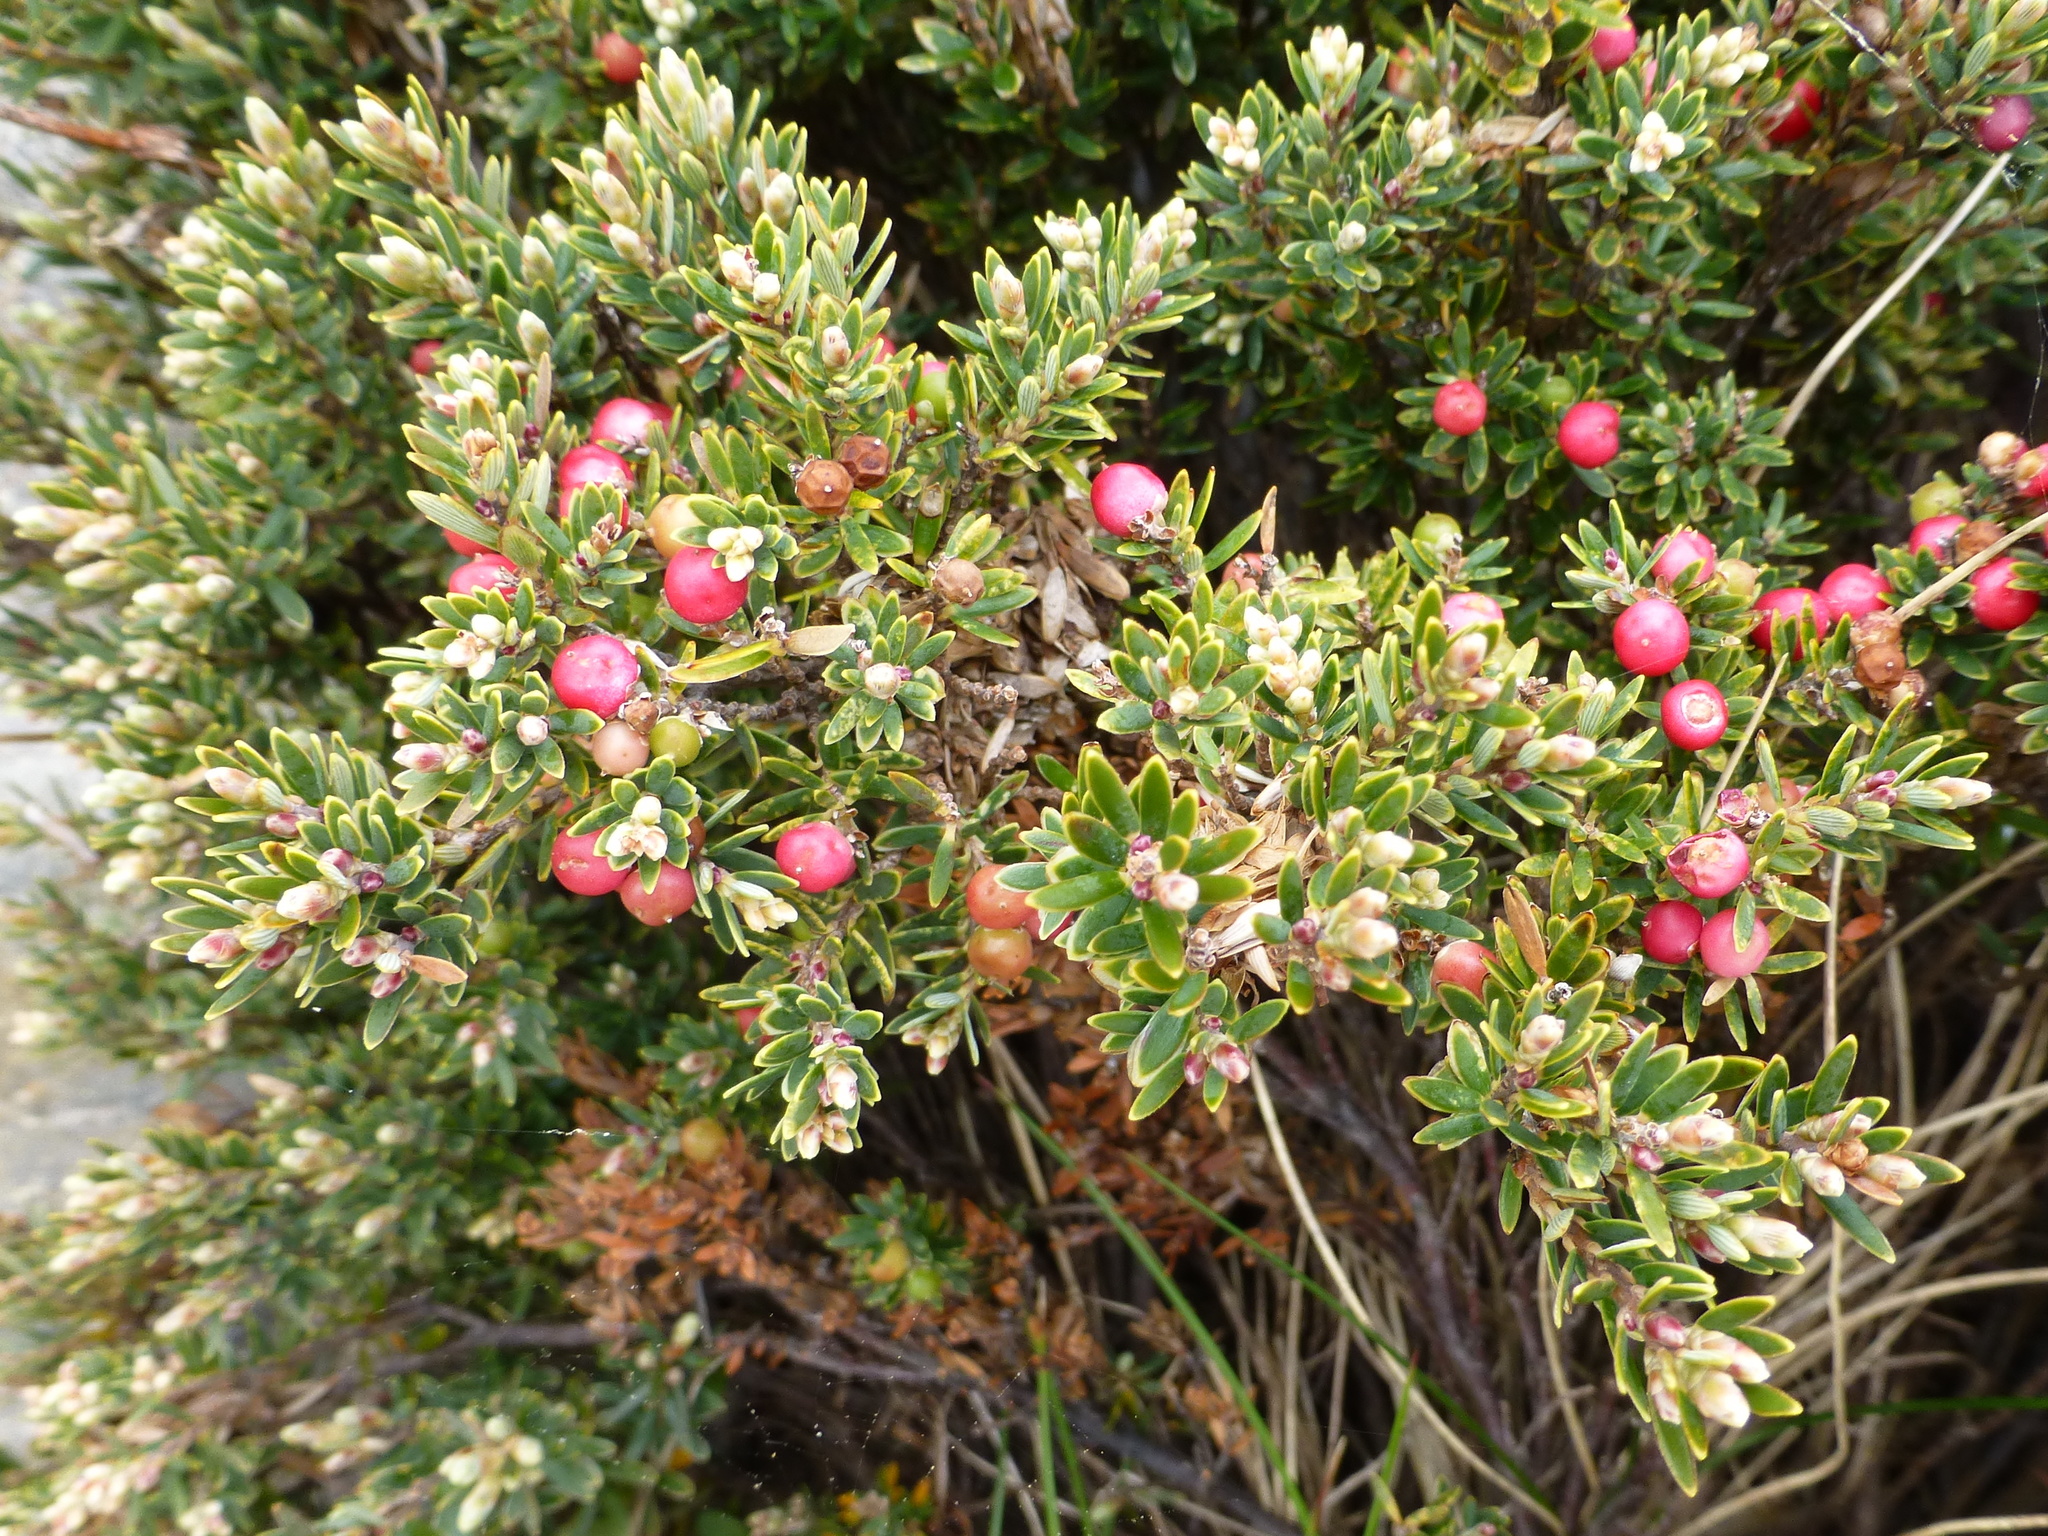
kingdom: Plantae
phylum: Tracheophyta
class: Magnoliopsida
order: Ericales
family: Ericaceae
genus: Acrothamnus
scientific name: Acrothamnus montanus
